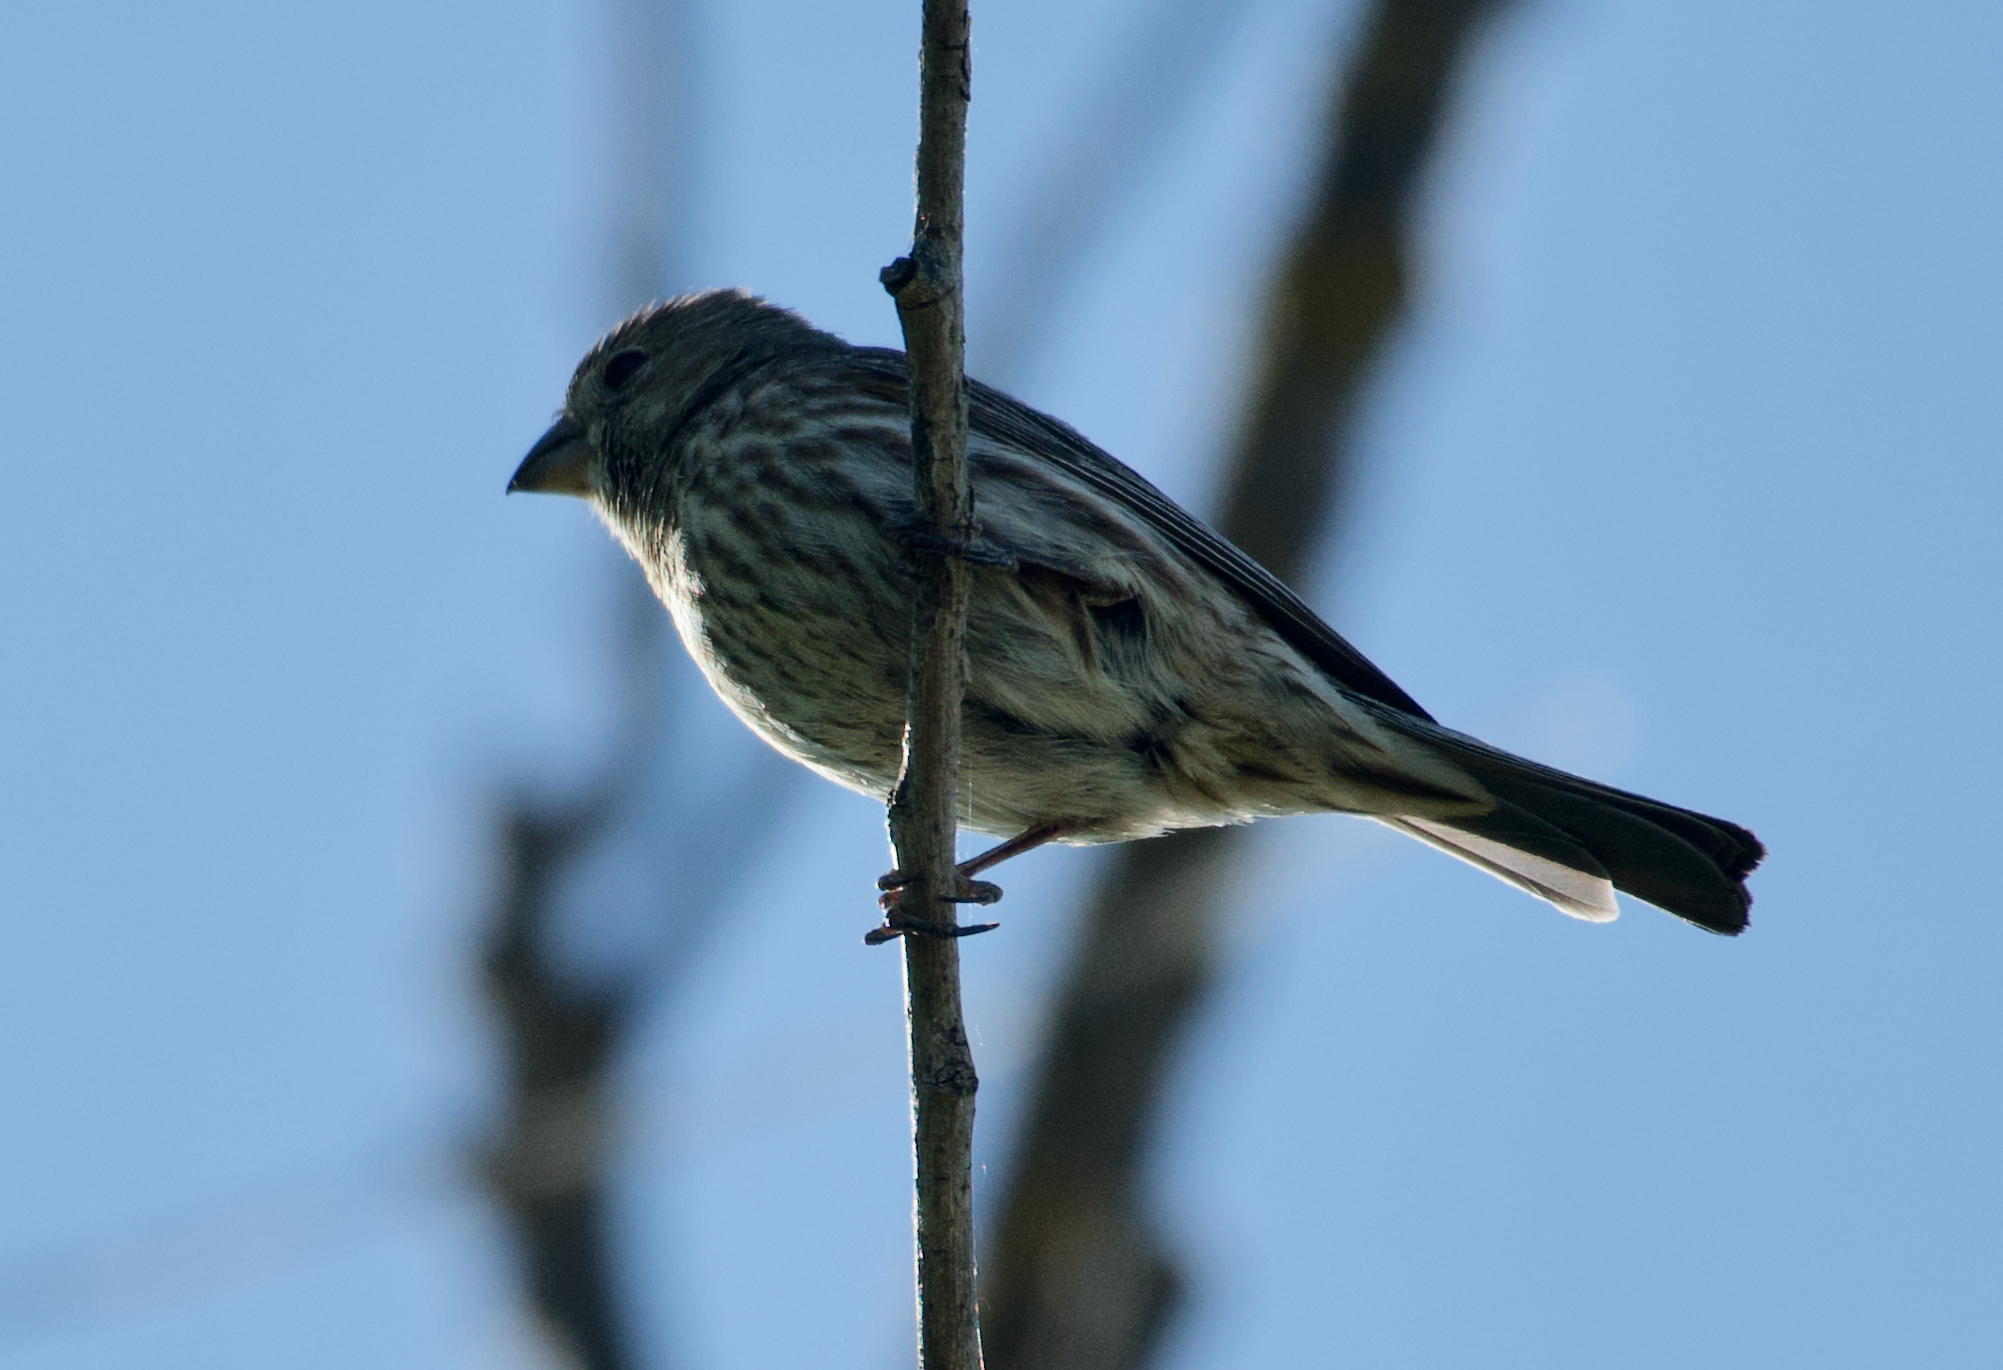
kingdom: Animalia
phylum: Chordata
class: Aves
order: Passeriformes
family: Fringillidae
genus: Haemorhous
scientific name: Haemorhous mexicanus
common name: House finch
